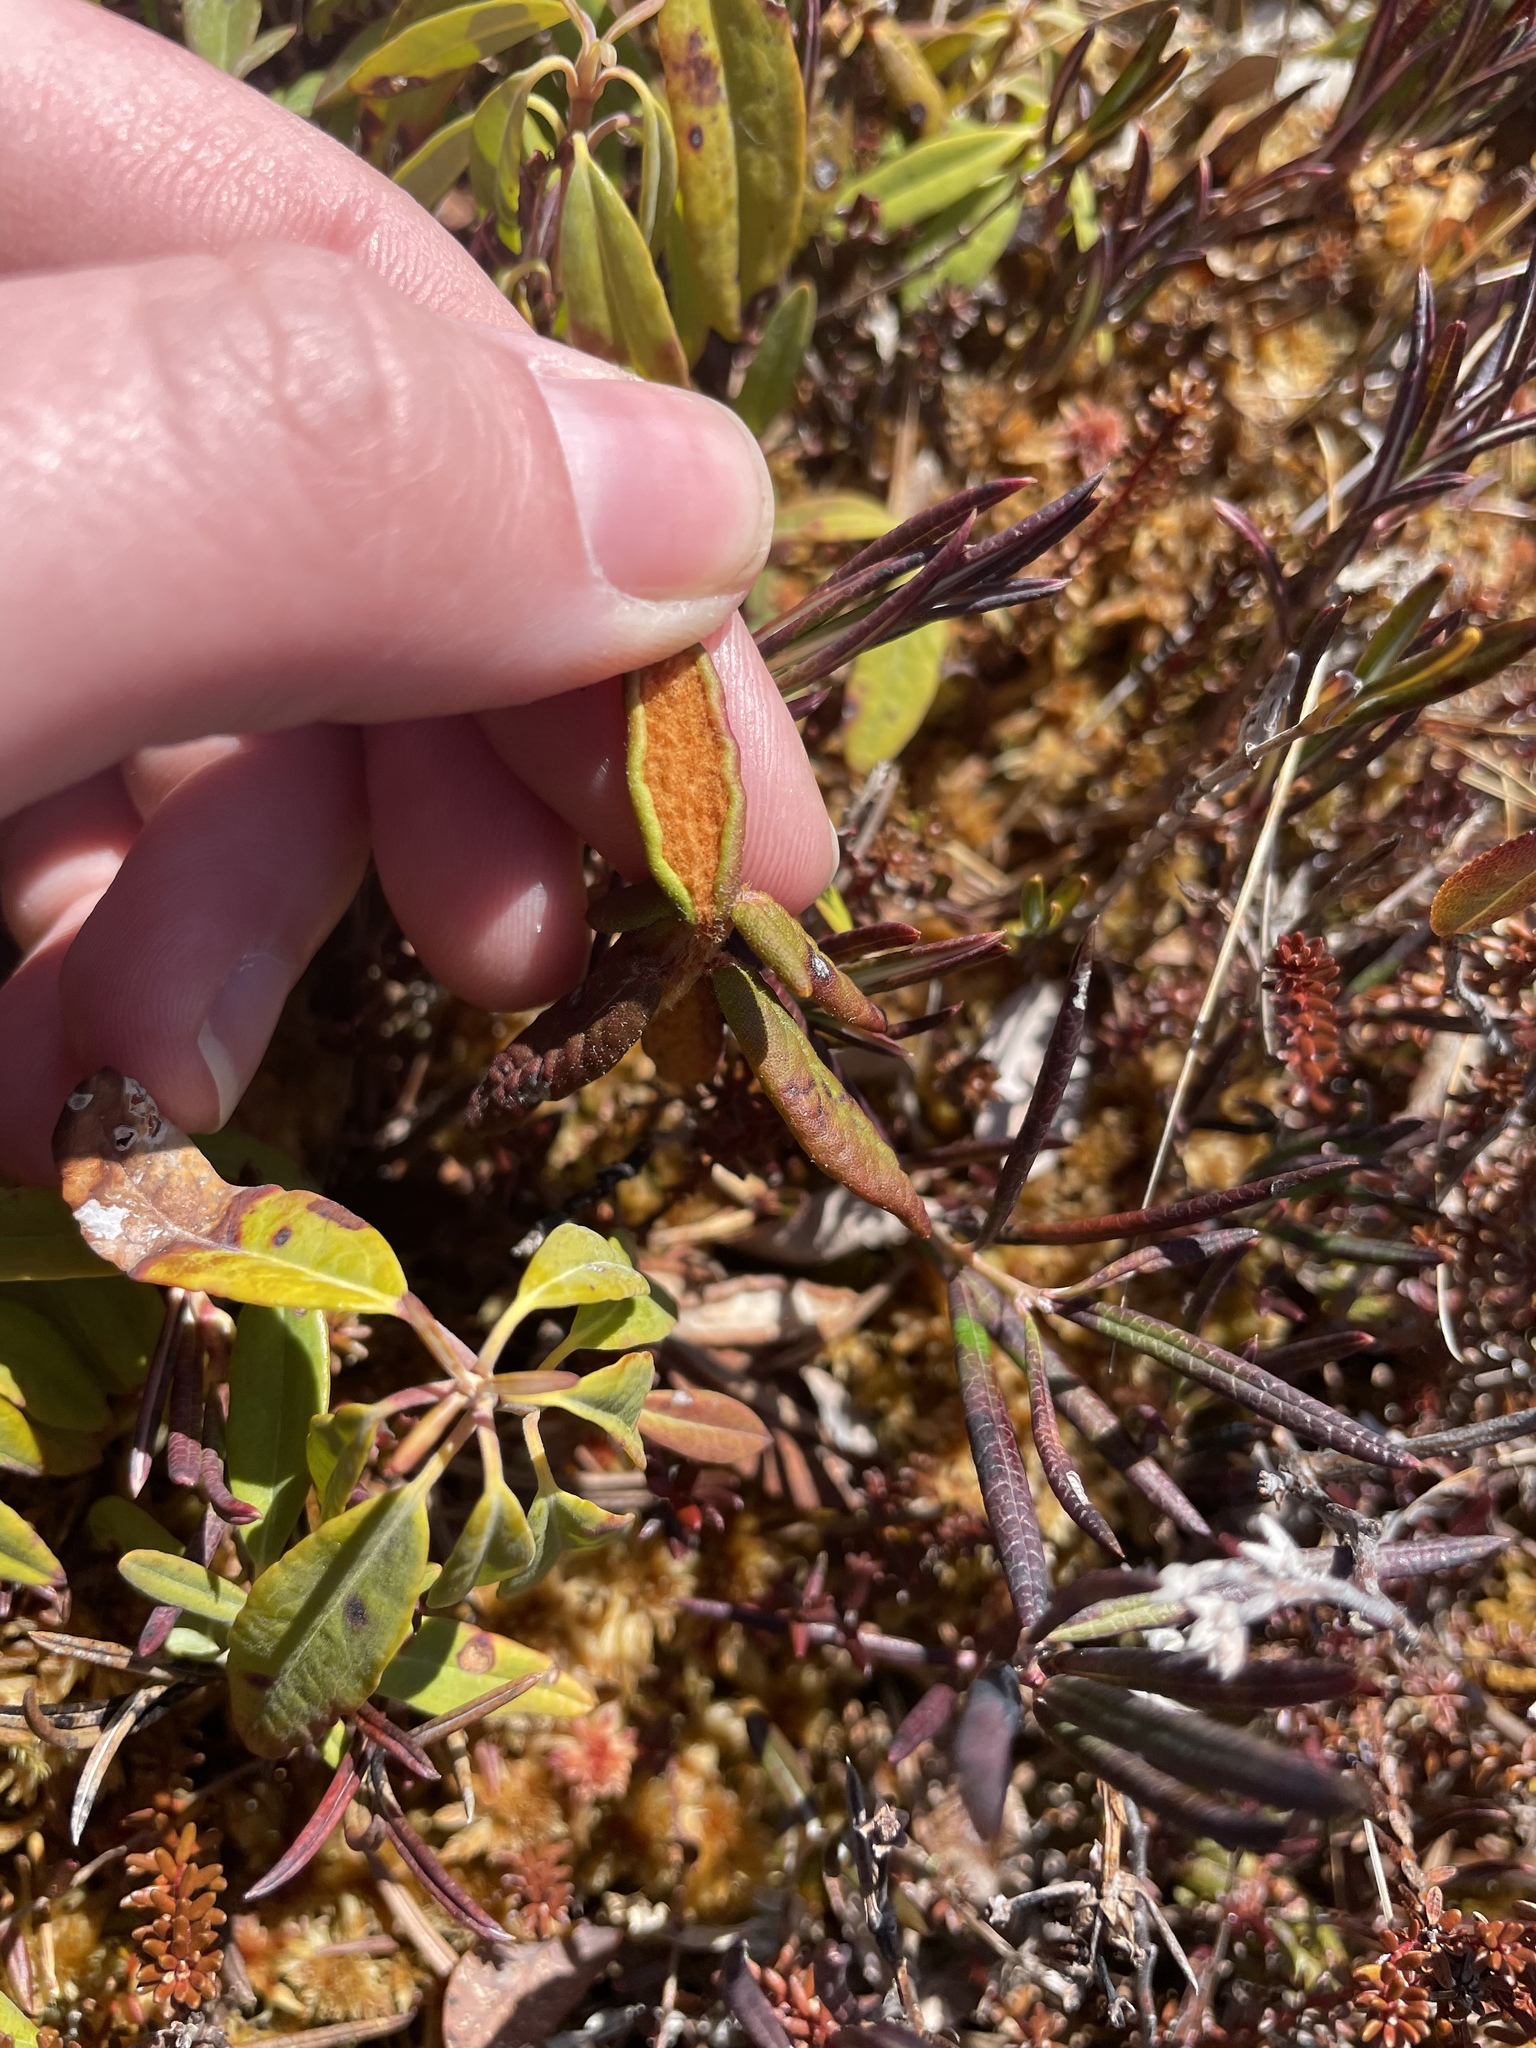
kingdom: Plantae
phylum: Tracheophyta
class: Magnoliopsida
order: Ericales
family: Ericaceae
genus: Rhododendron
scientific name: Rhododendron groenlandicum
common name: Bog labrador tea
